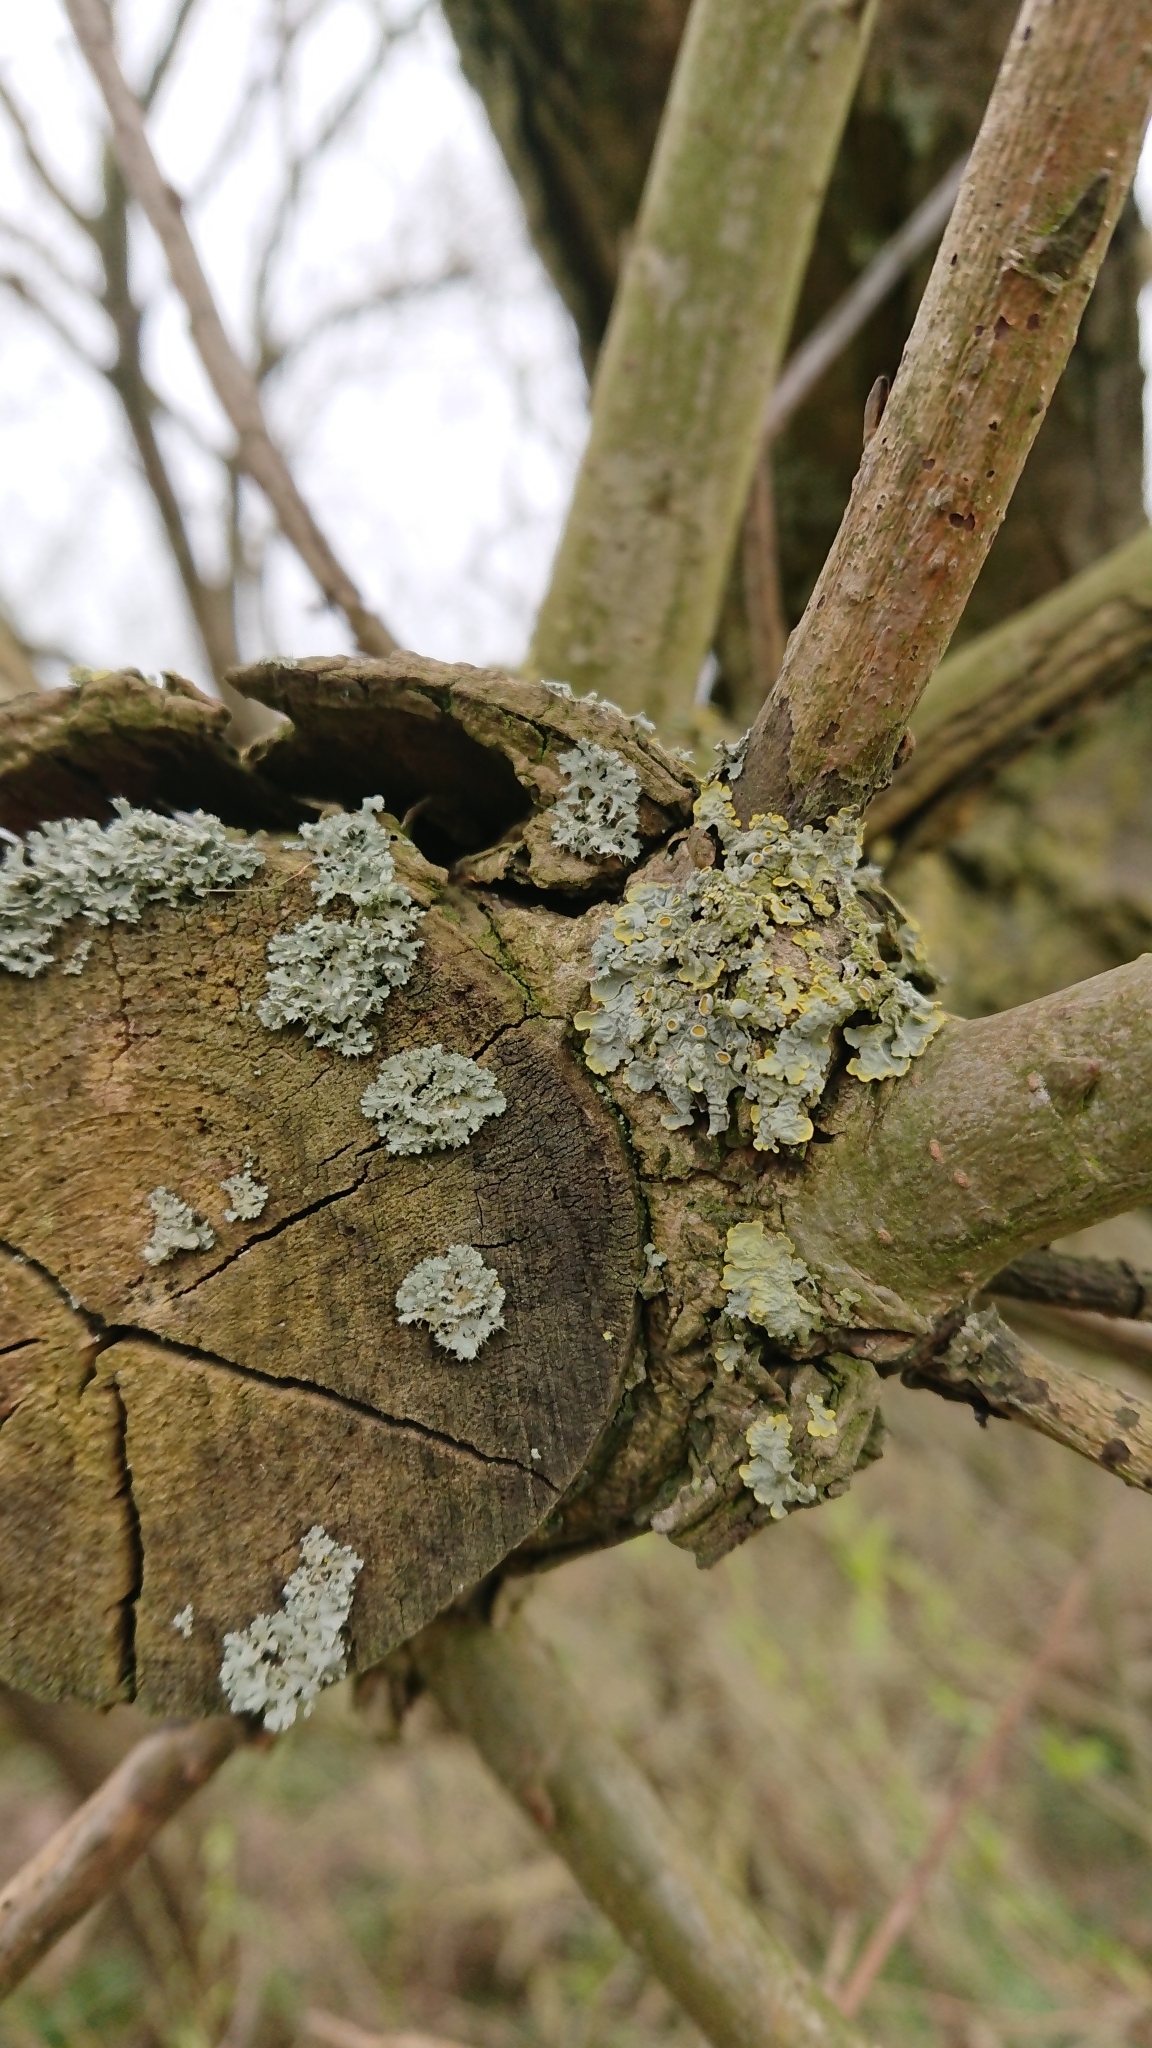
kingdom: Fungi
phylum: Ascomycota
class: Lecanoromycetes
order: Teloschistales
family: Teloschistaceae
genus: Xanthoria
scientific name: Xanthoria parietina
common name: Common orange lichen
